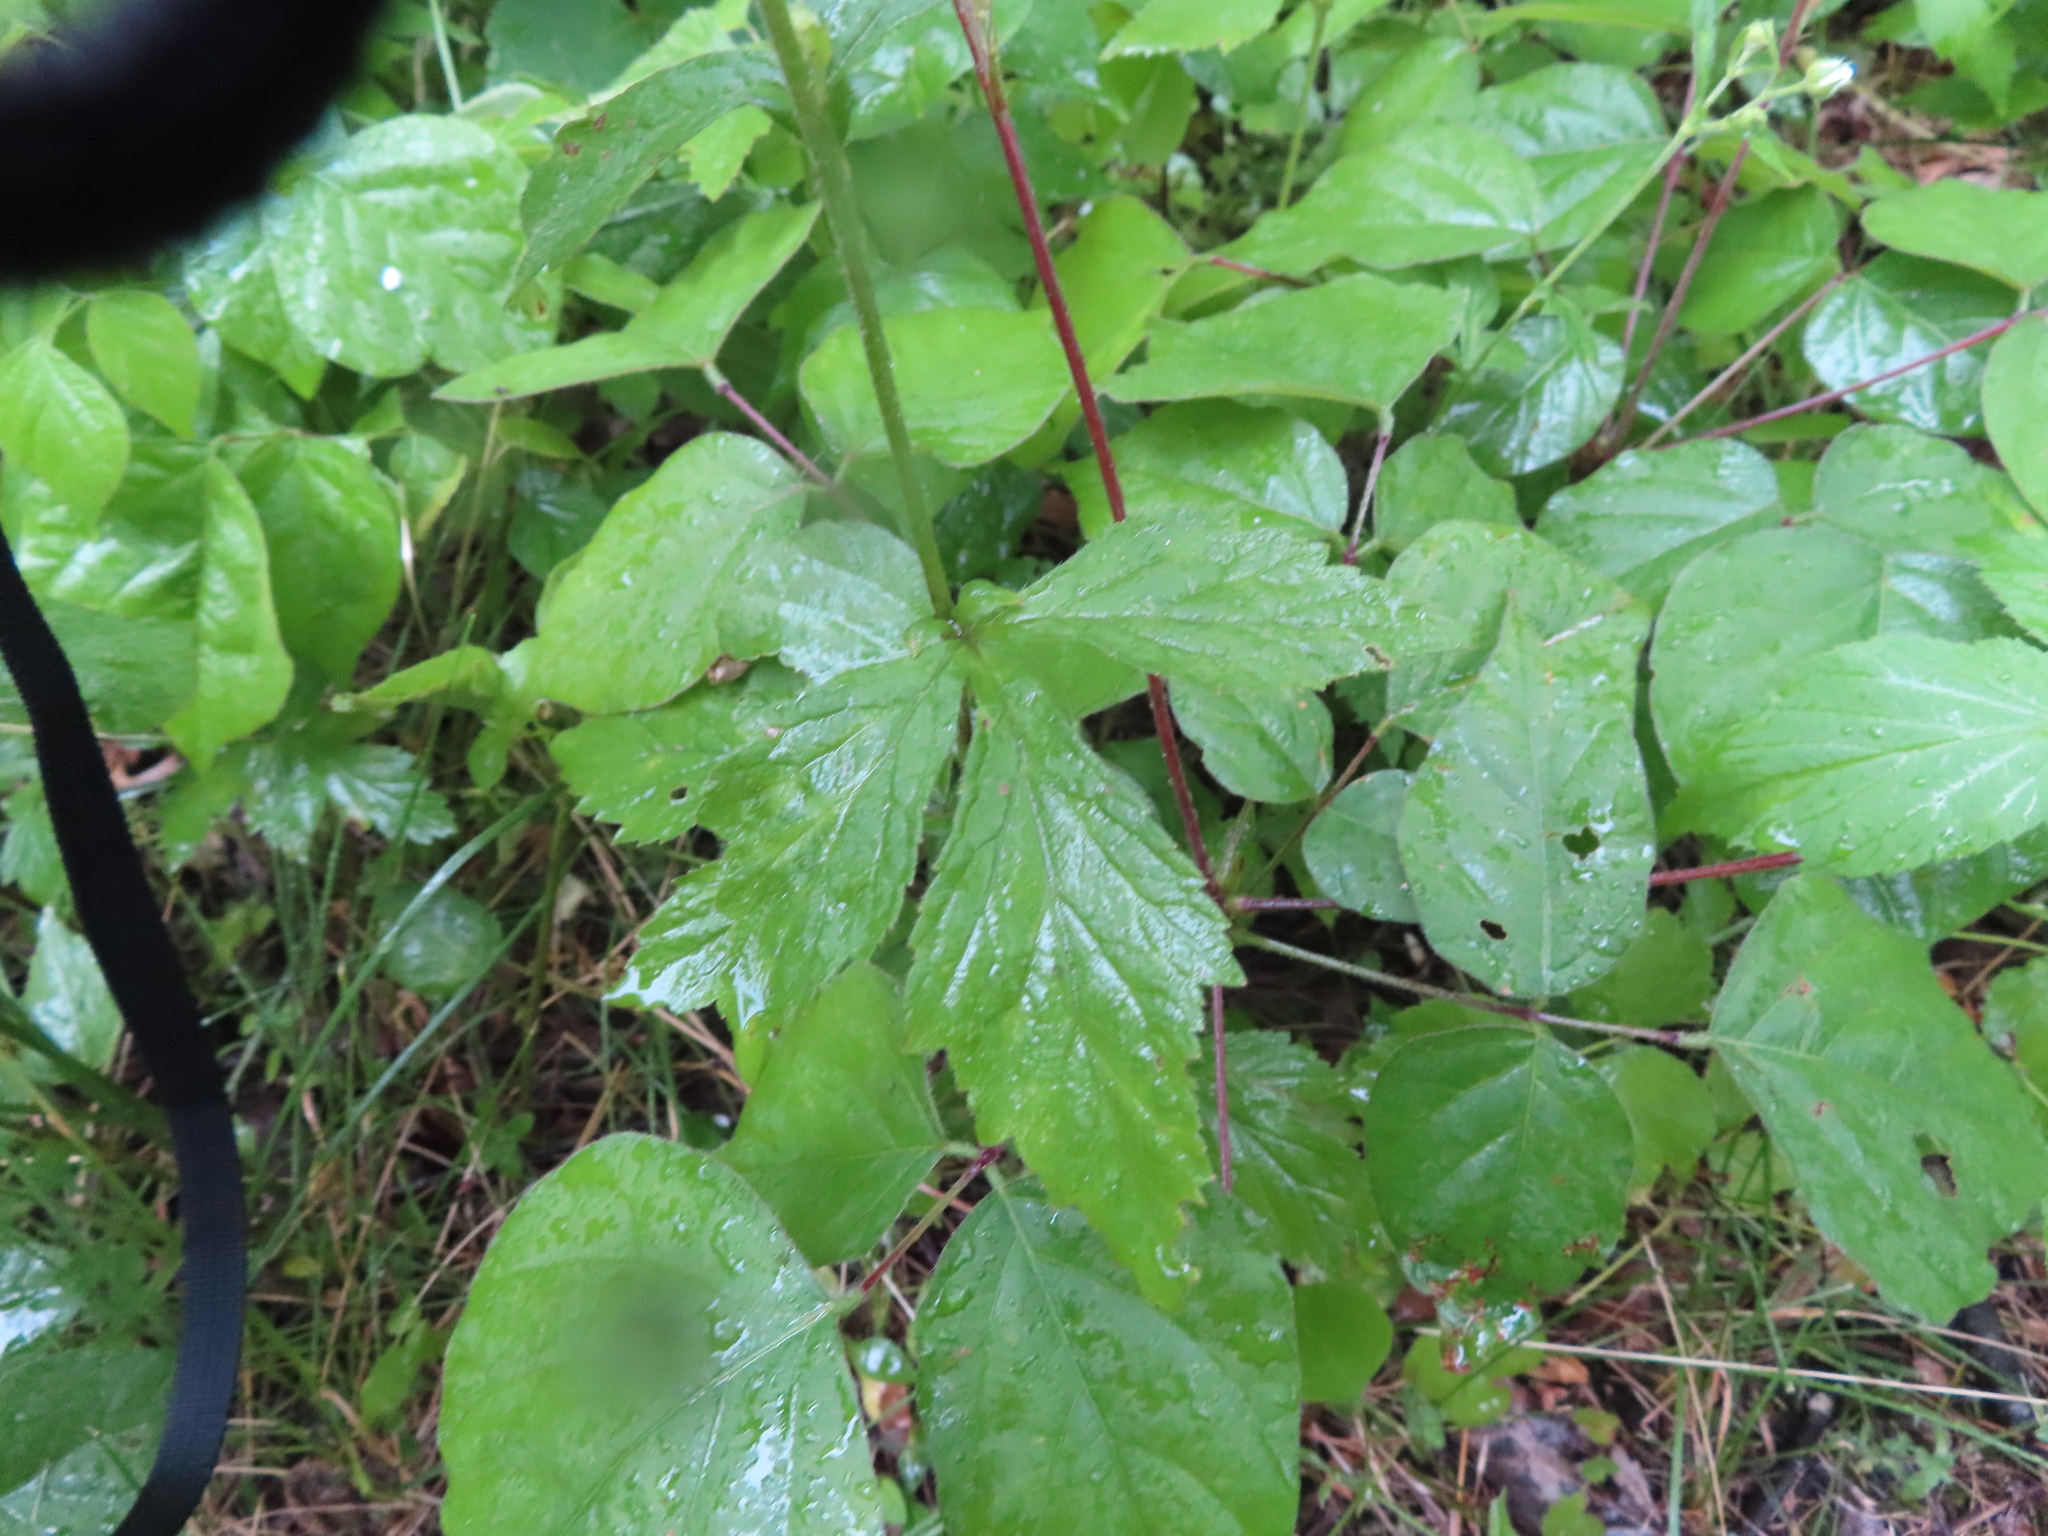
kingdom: Plantae
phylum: Tracheophyta
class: Magnoliopsida
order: Rosales
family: Rosaceae
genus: Geum
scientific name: Geum canadense
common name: White avens
